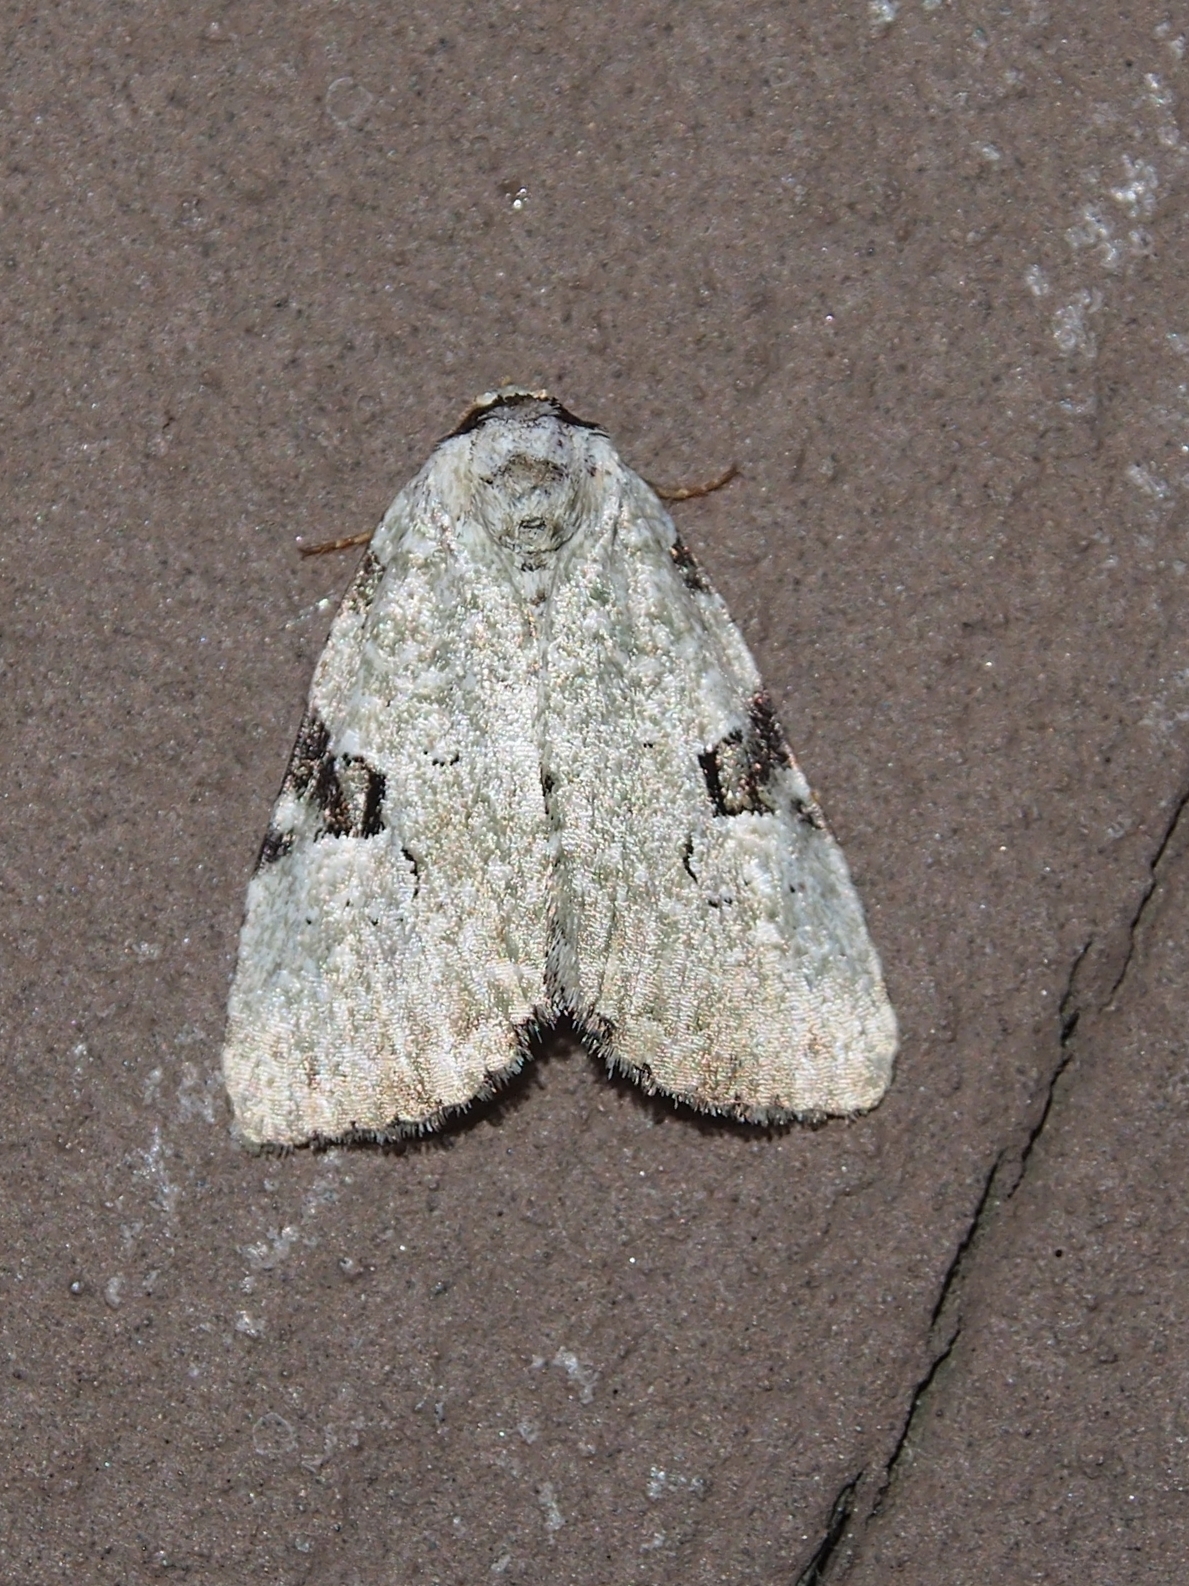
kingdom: Animalia
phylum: Arthropoda
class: Insecta
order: Lepidoptera
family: Noctuidae
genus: Leuconycta
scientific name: Leuconycta diphteroides
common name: Green leuconycta moth
